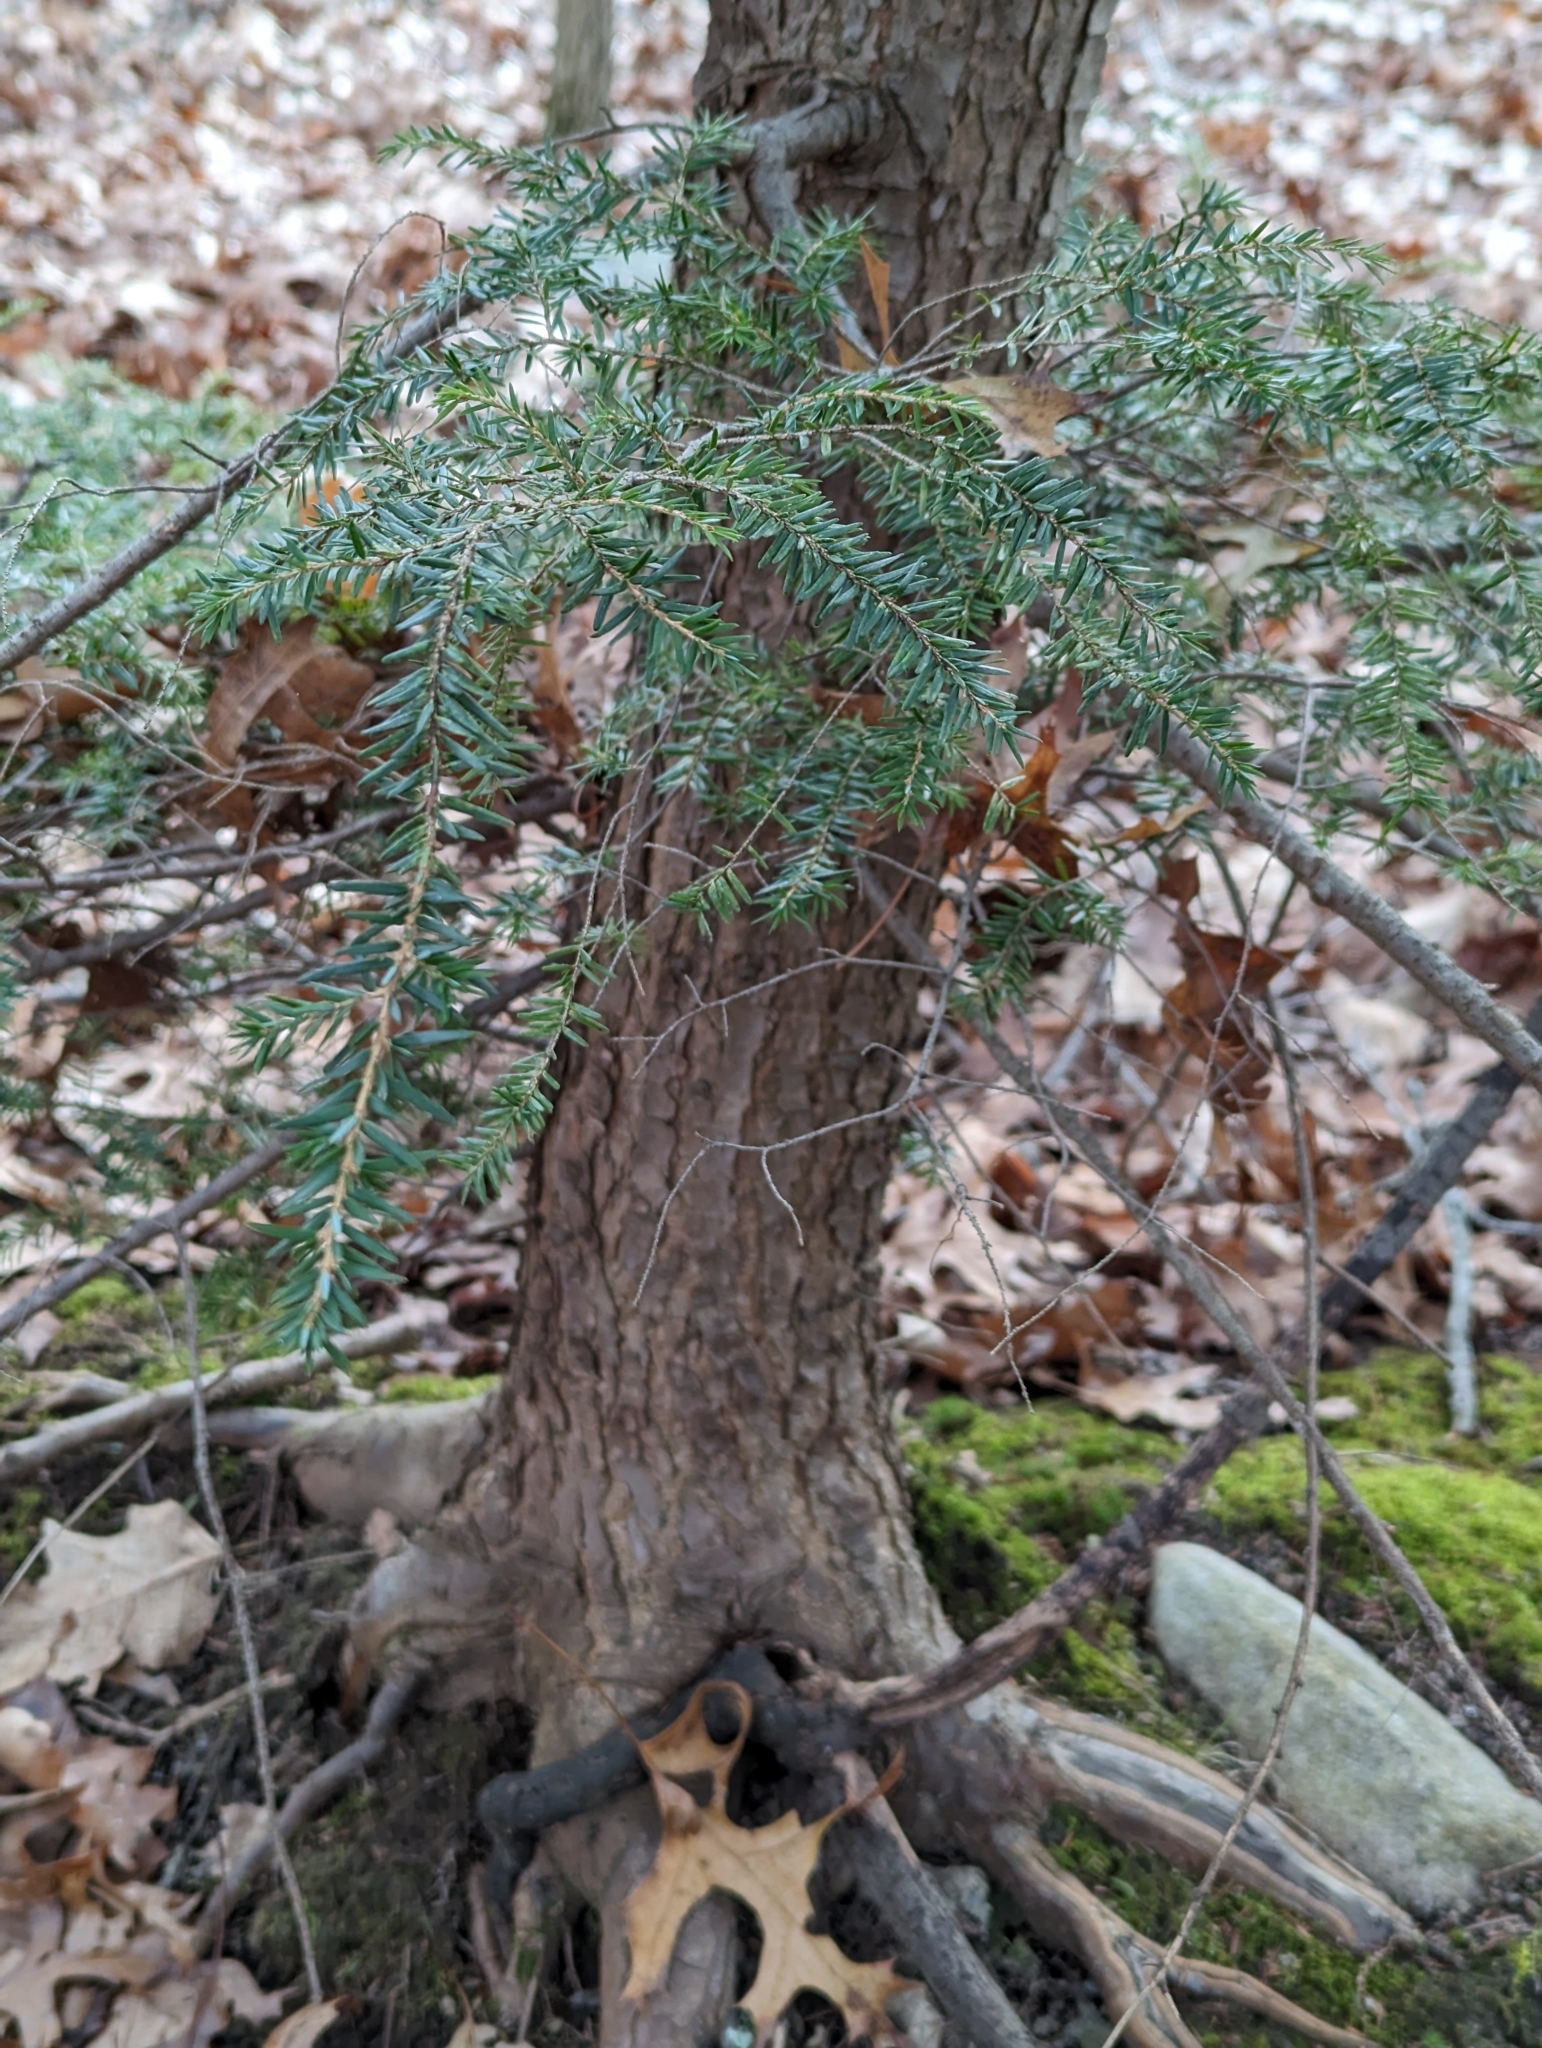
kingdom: Plantae
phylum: Tracheophyta
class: Pinopsida
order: Pinales
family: Pinaceae
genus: Tsuga
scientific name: Tsuga canadensis
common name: Eastern hemlock
